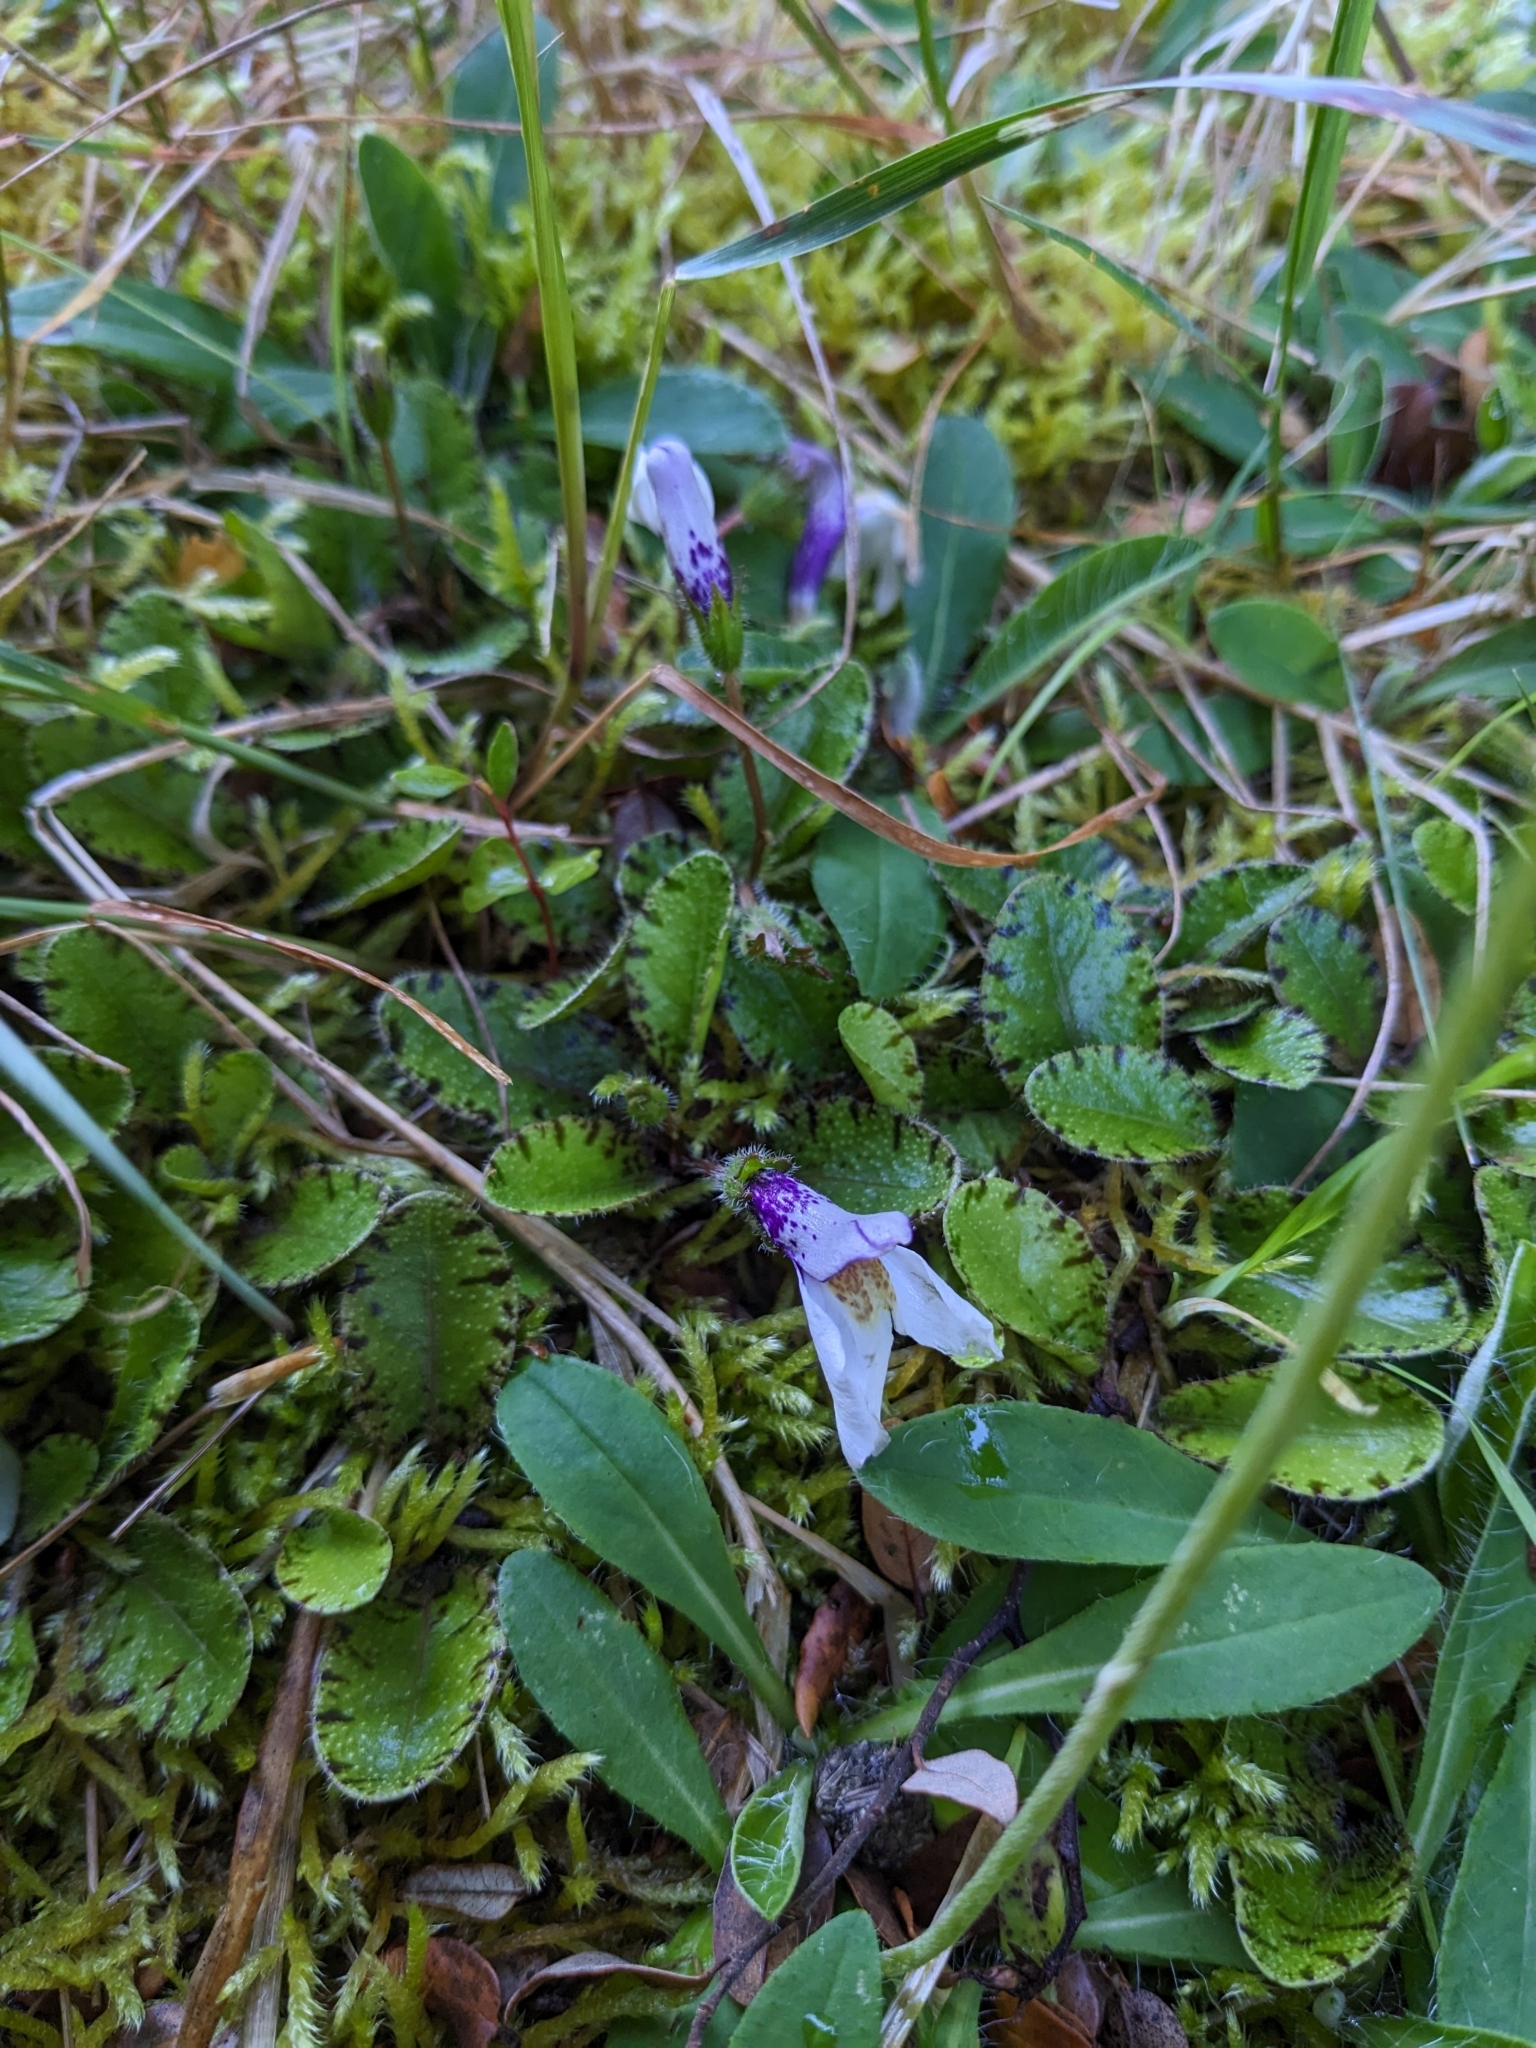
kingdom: Plantae
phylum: Tracheophyta
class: Magnoliopsida
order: Lamiales
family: Mazaceae
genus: Mazus
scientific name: Mazus radicans
